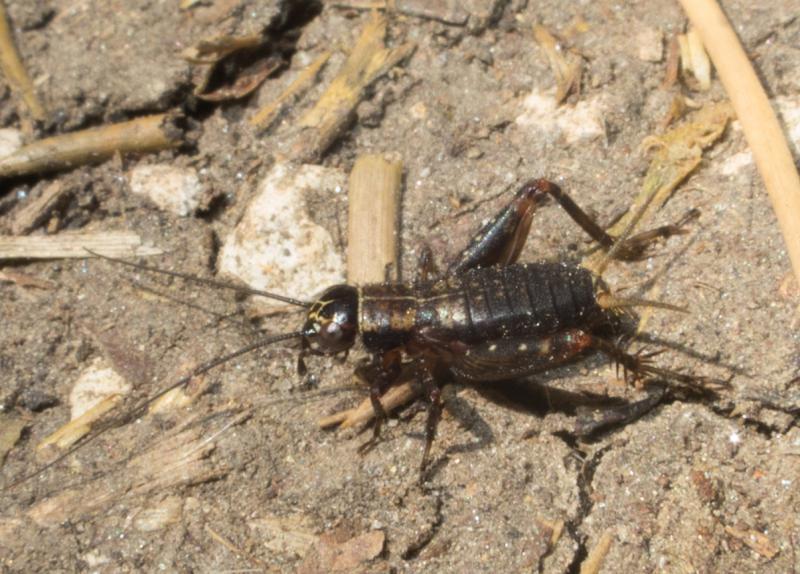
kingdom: Animalia
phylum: Arthropoda
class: Insecta
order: Orthoptera
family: Trigonidiidae
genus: Nemobius
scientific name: Nemobius sylvestris
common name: Wood-cricket
